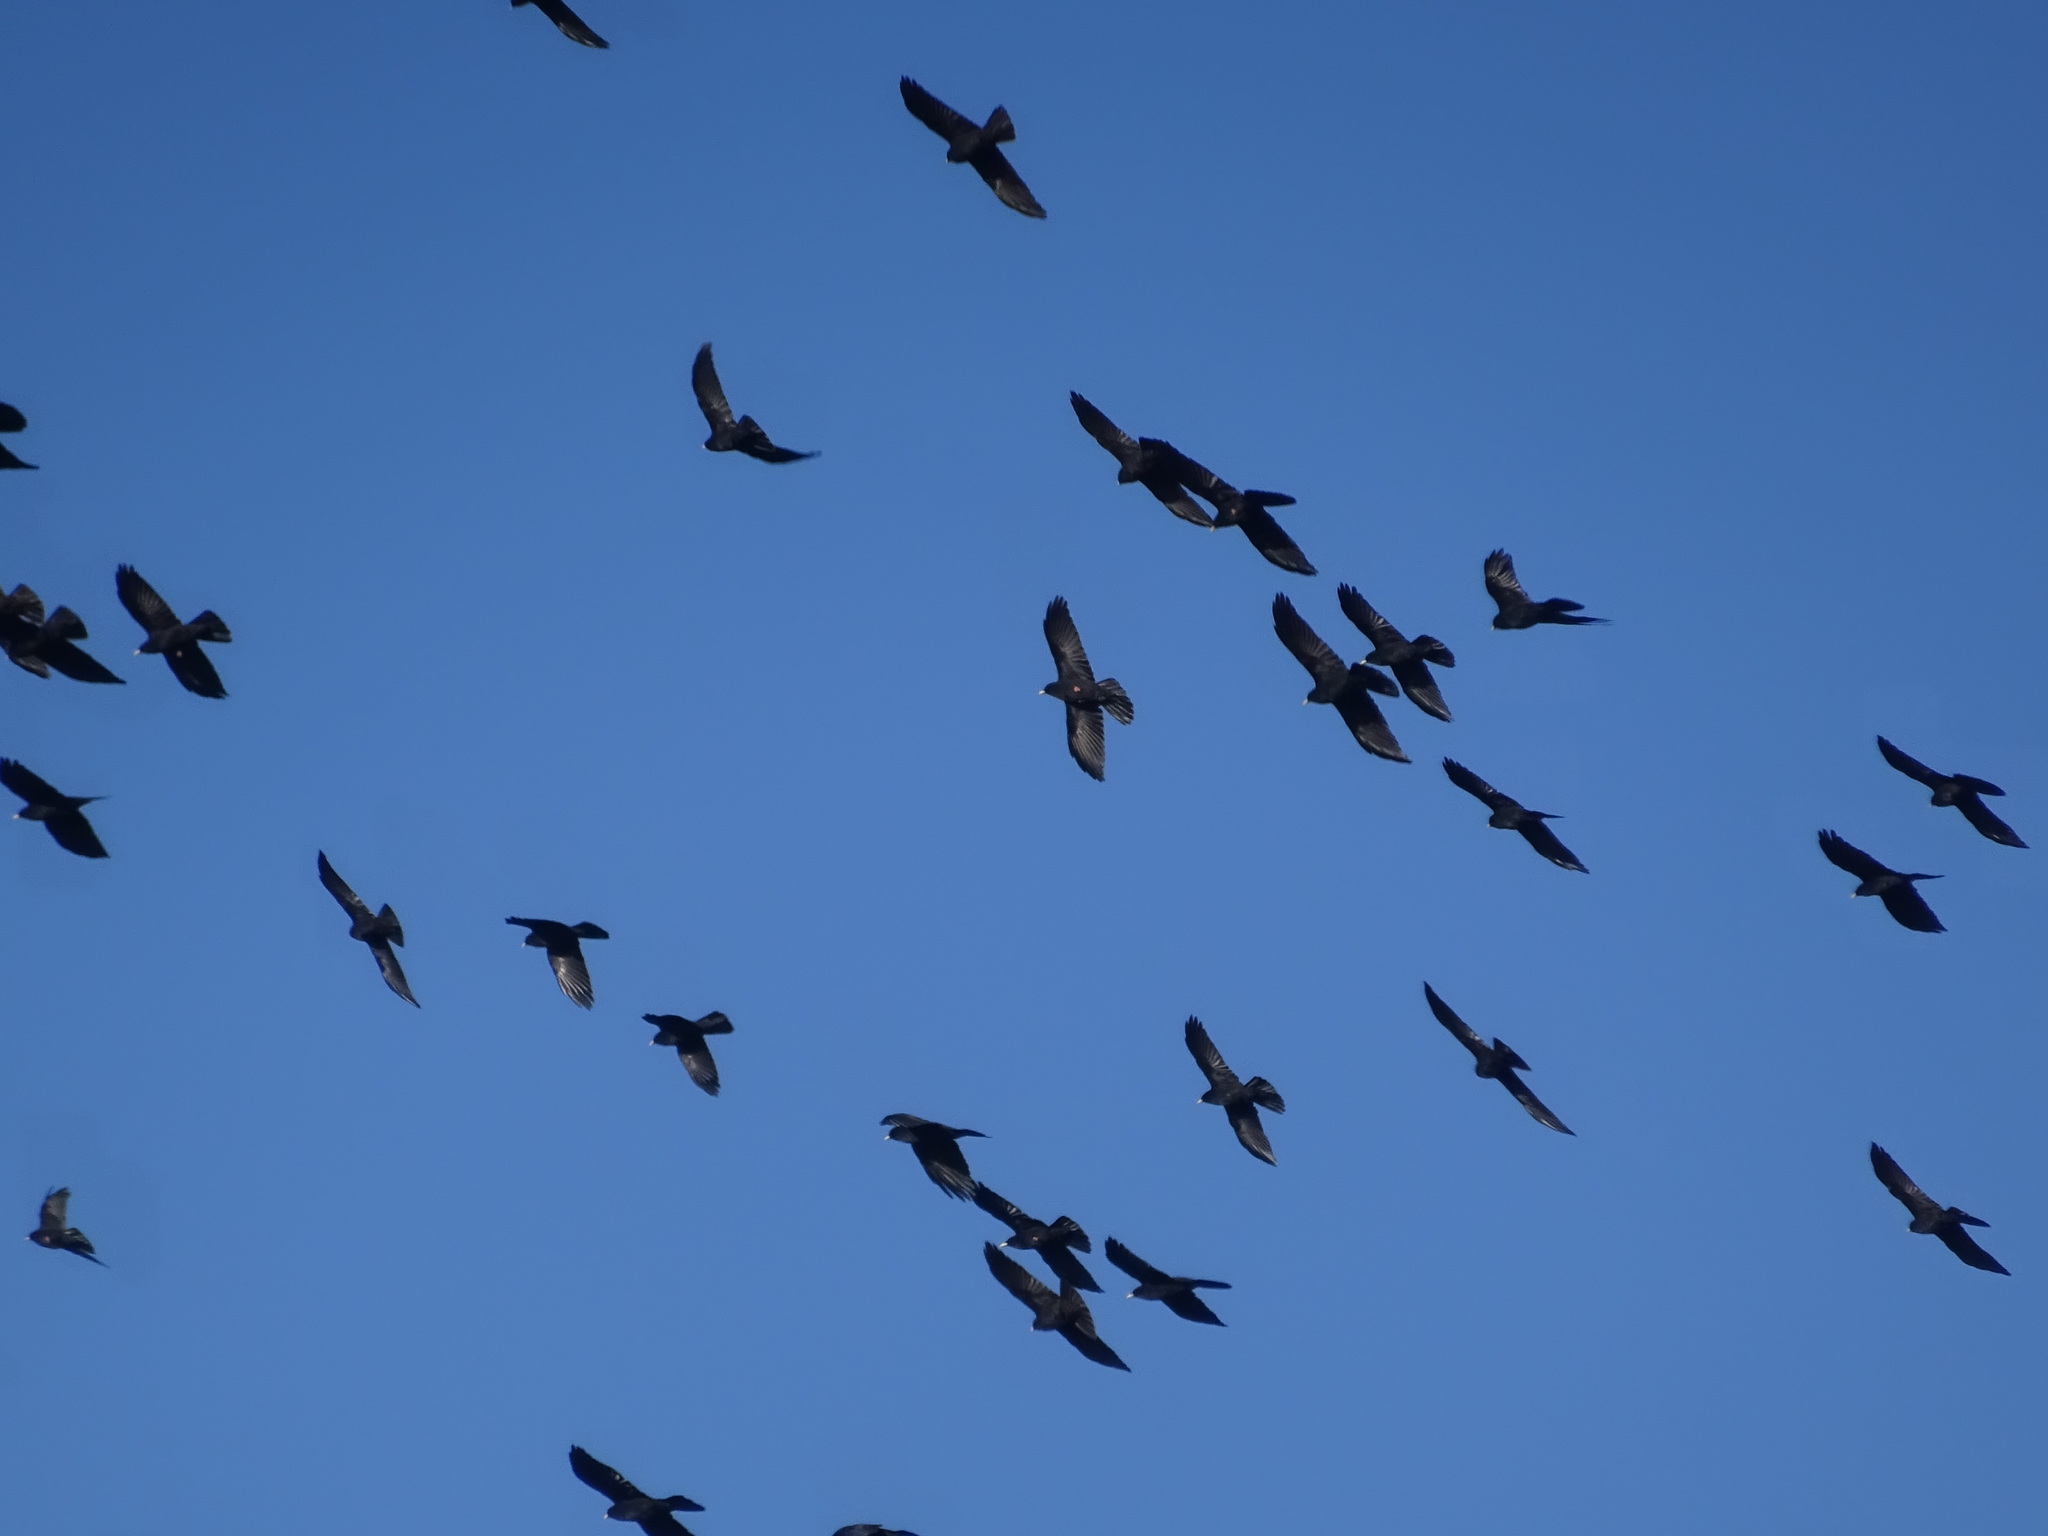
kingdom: Animalia
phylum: Chordata
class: Aves
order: Passeriformes
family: Corvidae
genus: Pyrrhocorax
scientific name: Pyrrhocorax graculus
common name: Alpine chough
